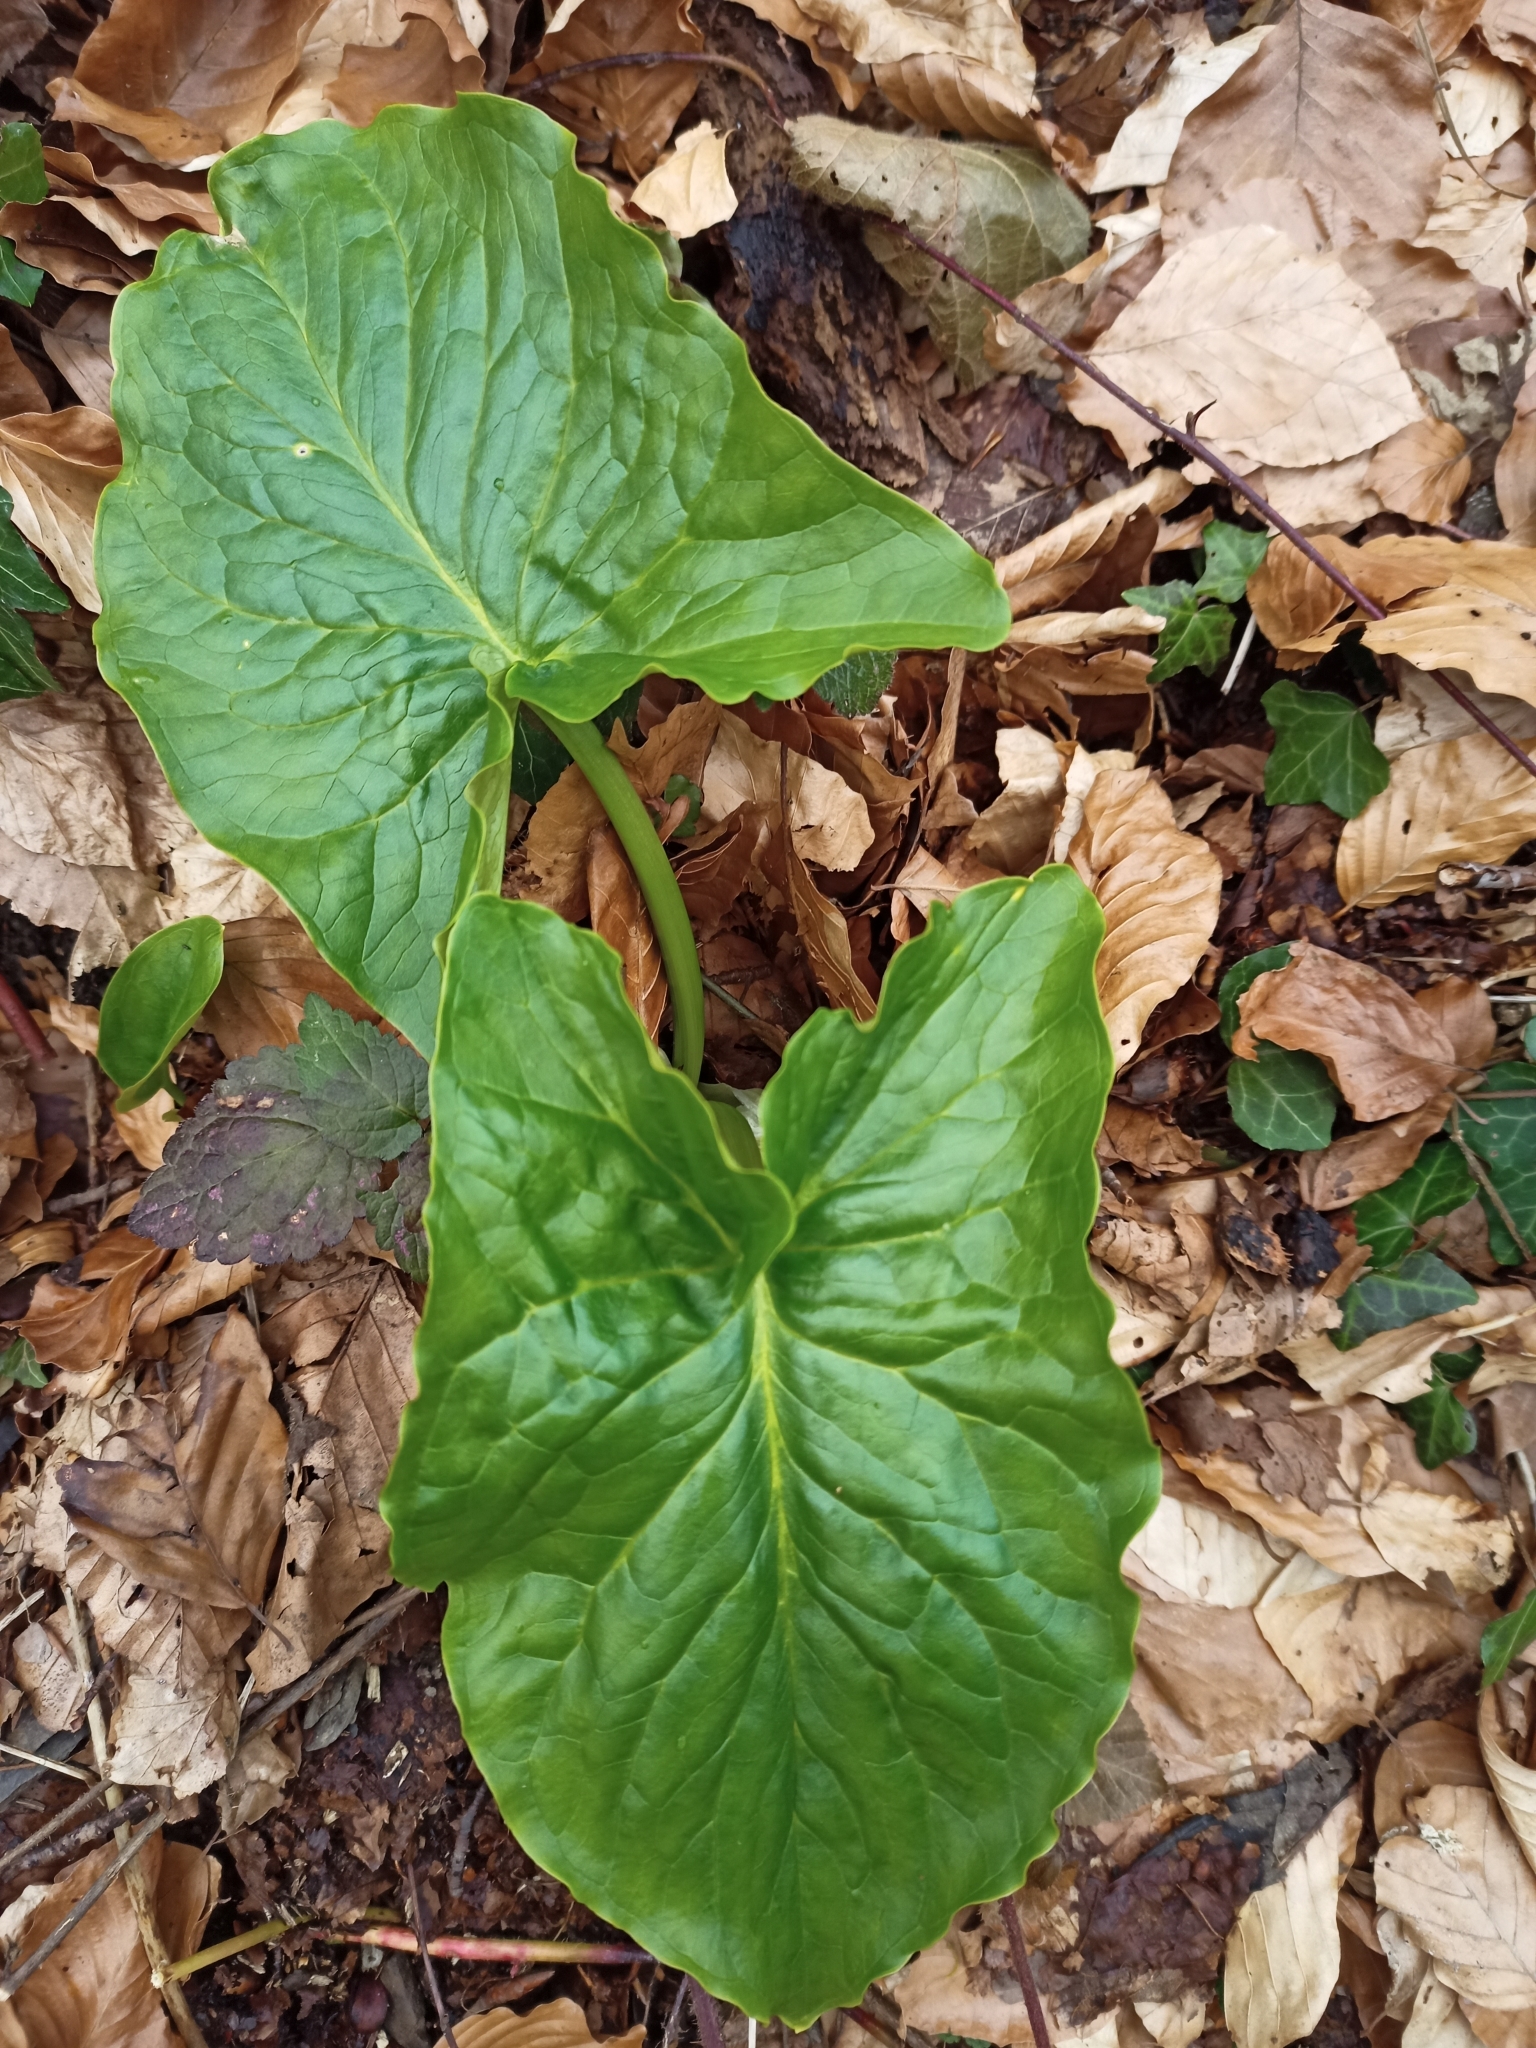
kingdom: Plantae
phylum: Tracheophyta
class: Liliopsida
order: Alismatales
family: Araceae
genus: Arum
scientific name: Arum maculatum
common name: Lords-and-ladies
